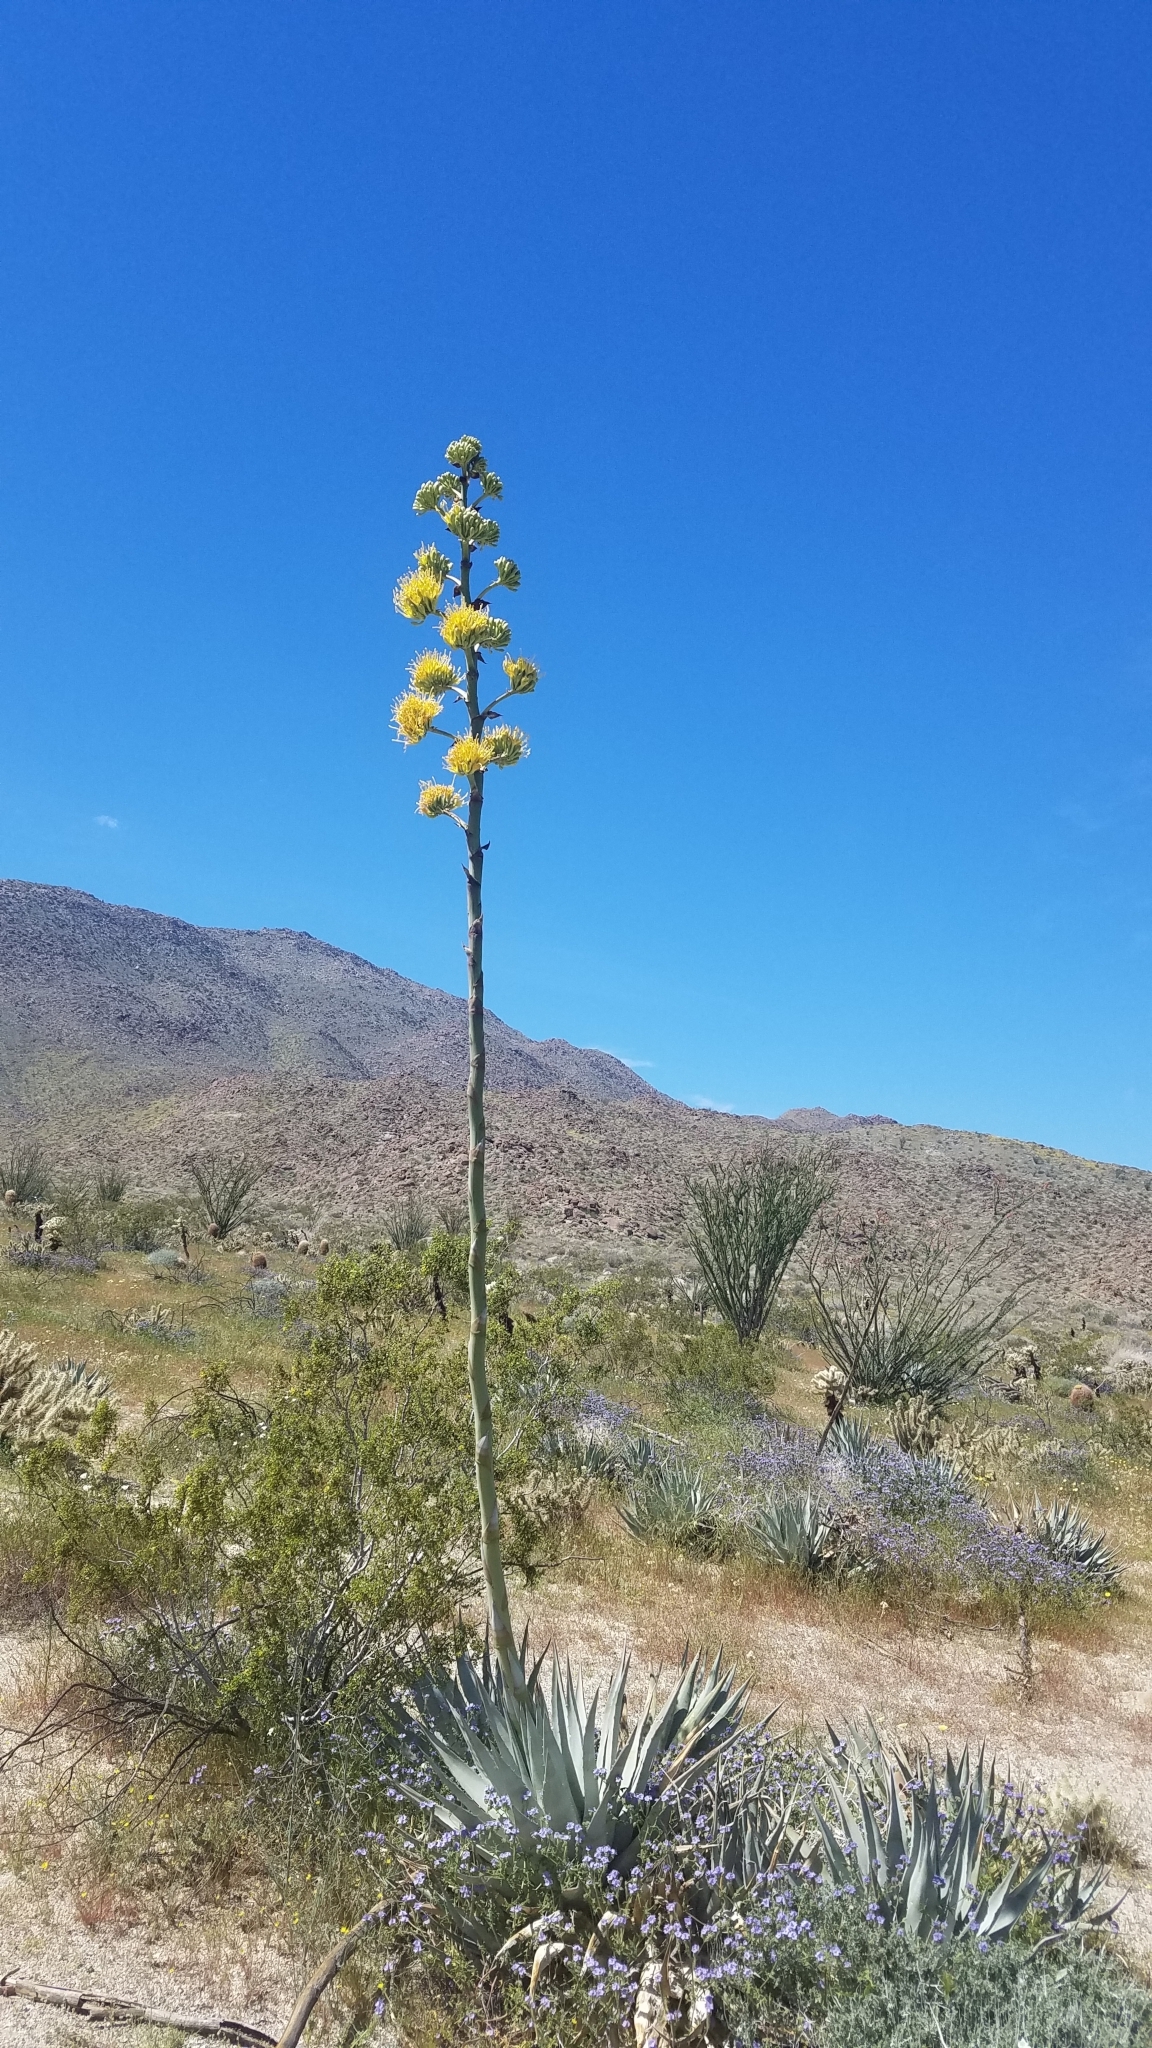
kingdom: Plantae
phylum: Tracheophyta
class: Liliopsida
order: Asparagales
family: Asparagaceae
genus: Agave
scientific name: Agave deserti
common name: Desert agave
